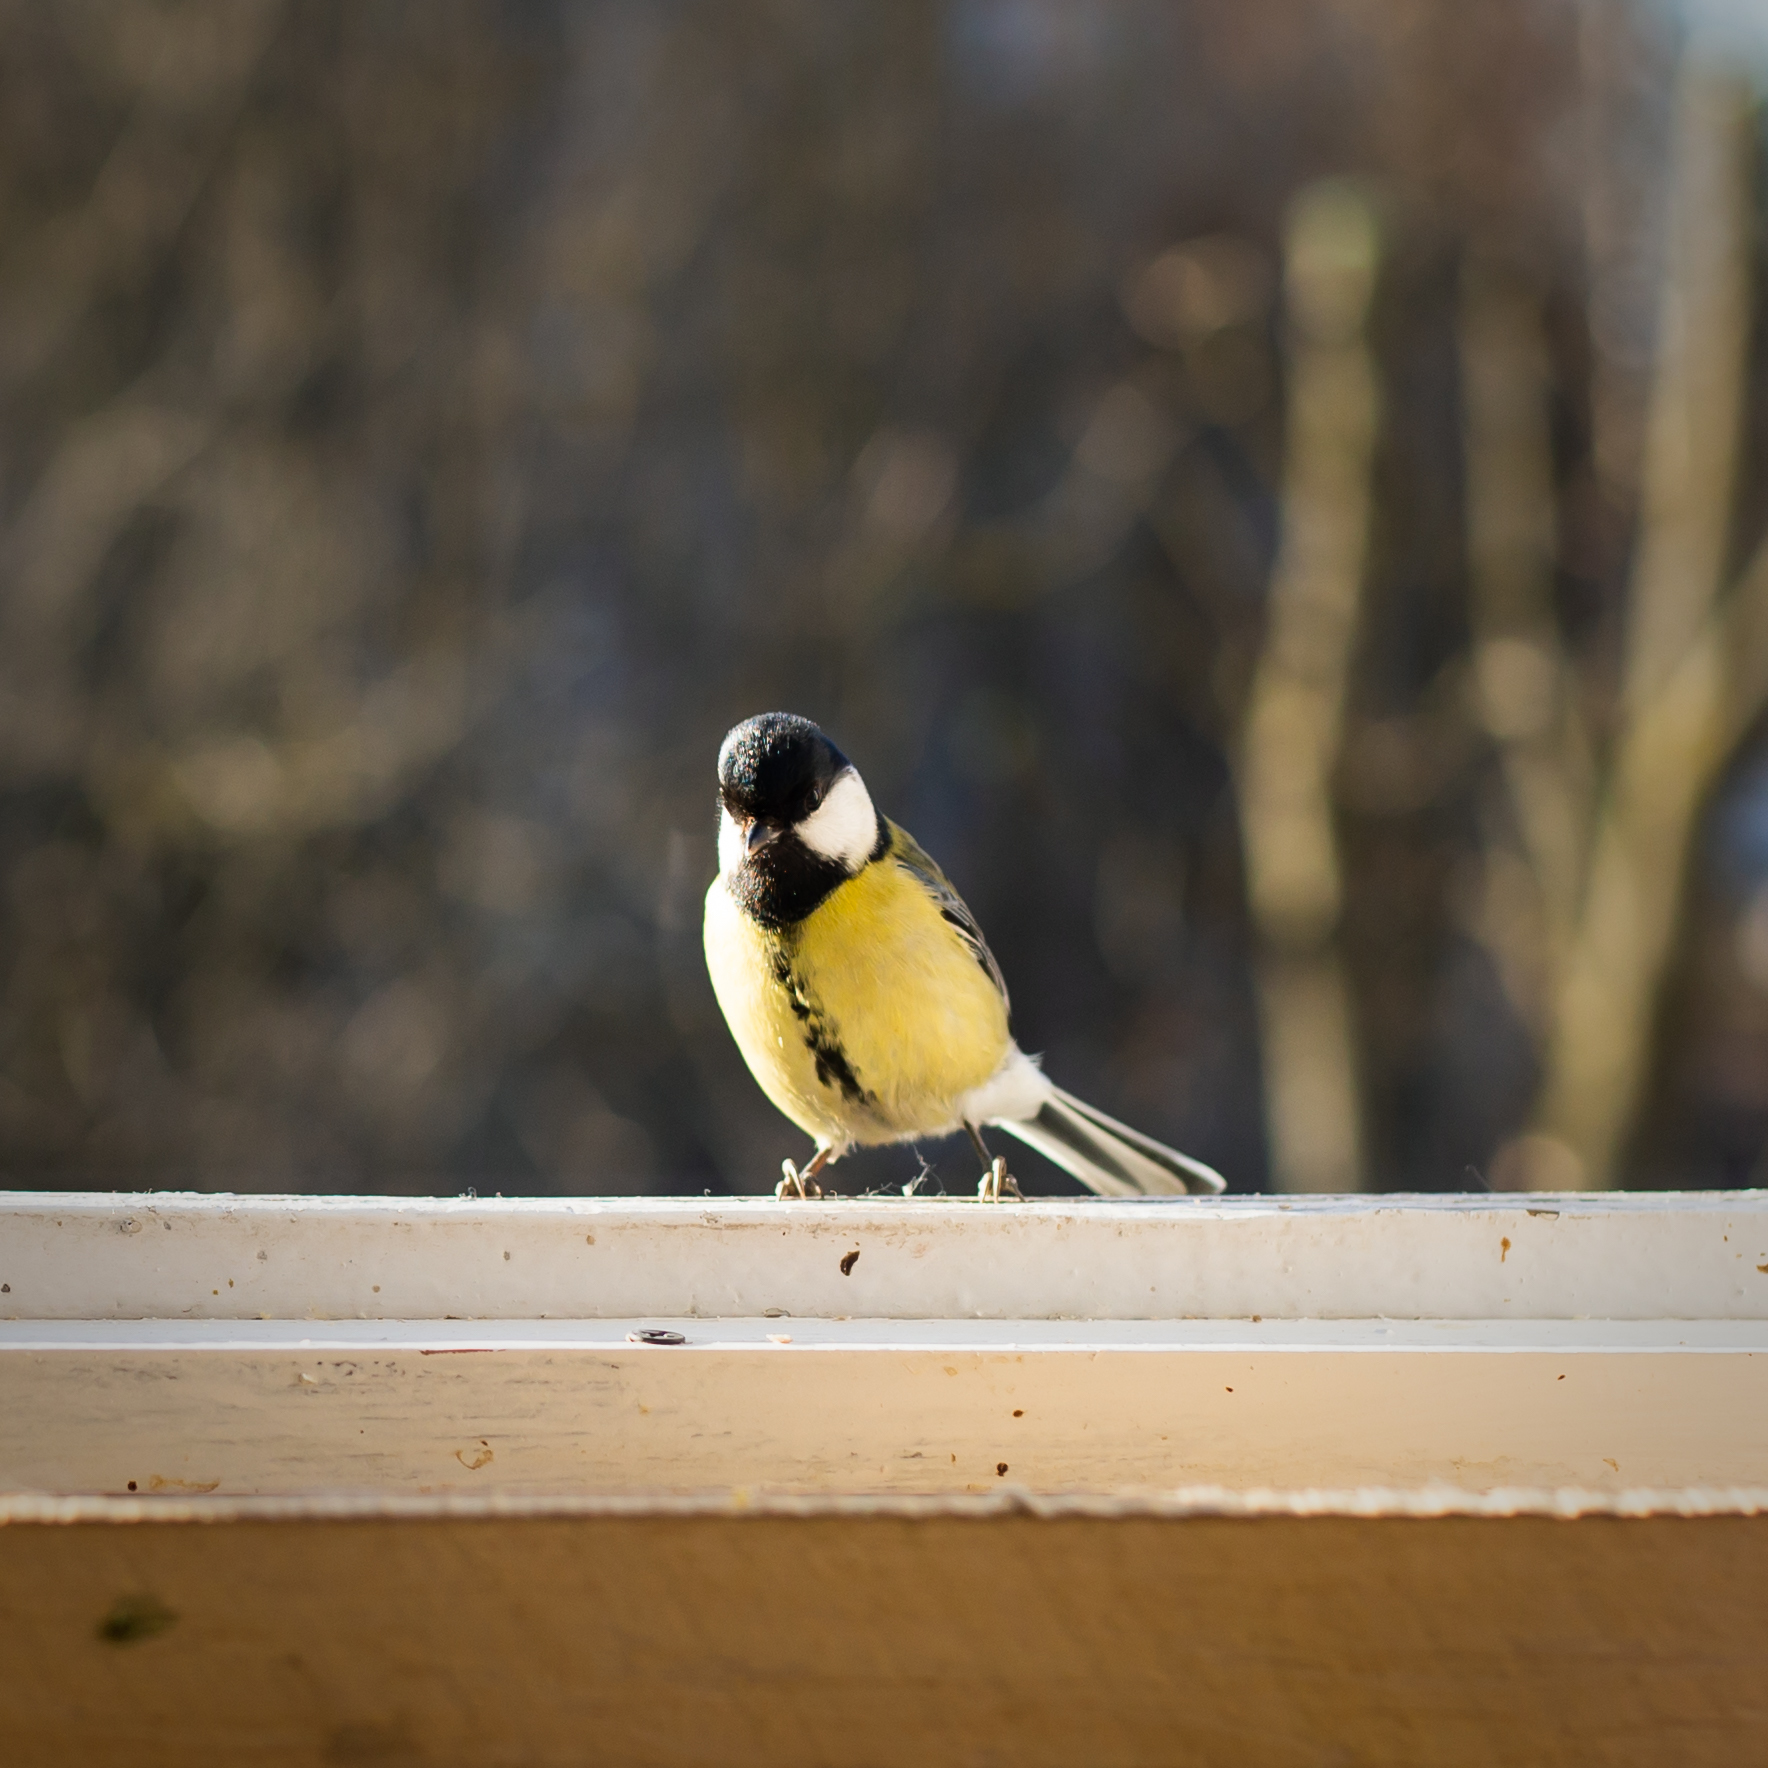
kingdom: Animalia
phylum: Chordata
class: Aves
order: Passeriformes
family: Paridae
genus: Parus
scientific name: Parus major
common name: Great tit
